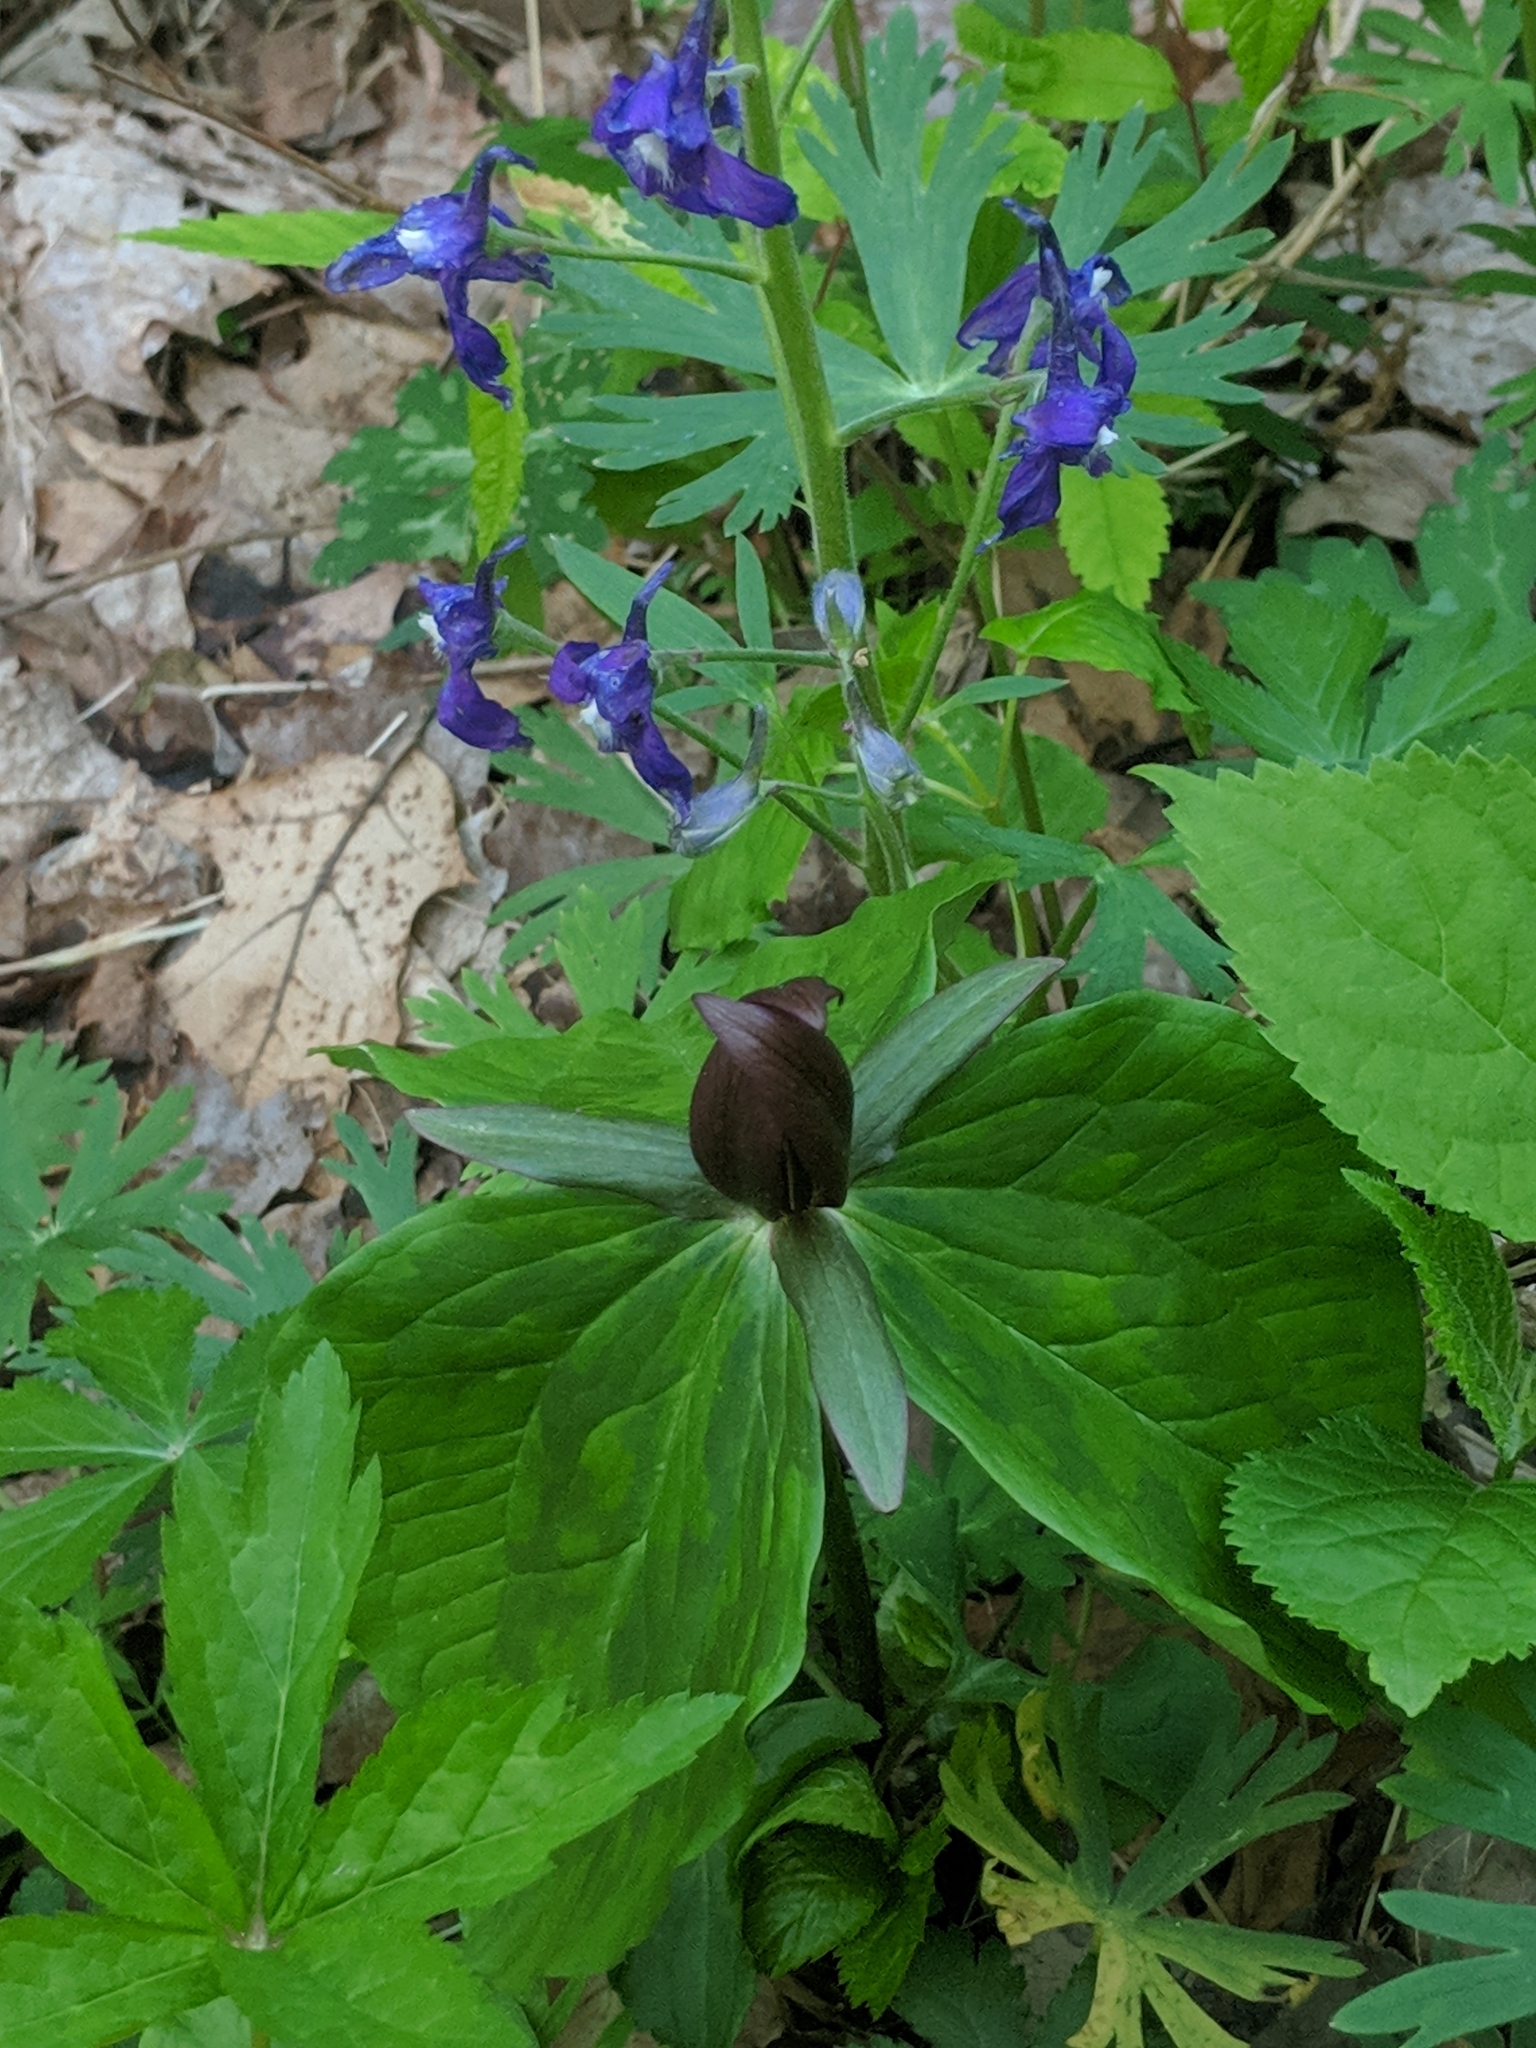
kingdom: Plantae
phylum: Tracheophyta
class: Liliopsida
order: Liliales
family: Melanthiaceae
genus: Trillium
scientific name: Trillium sessile
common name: Sessile trillium
